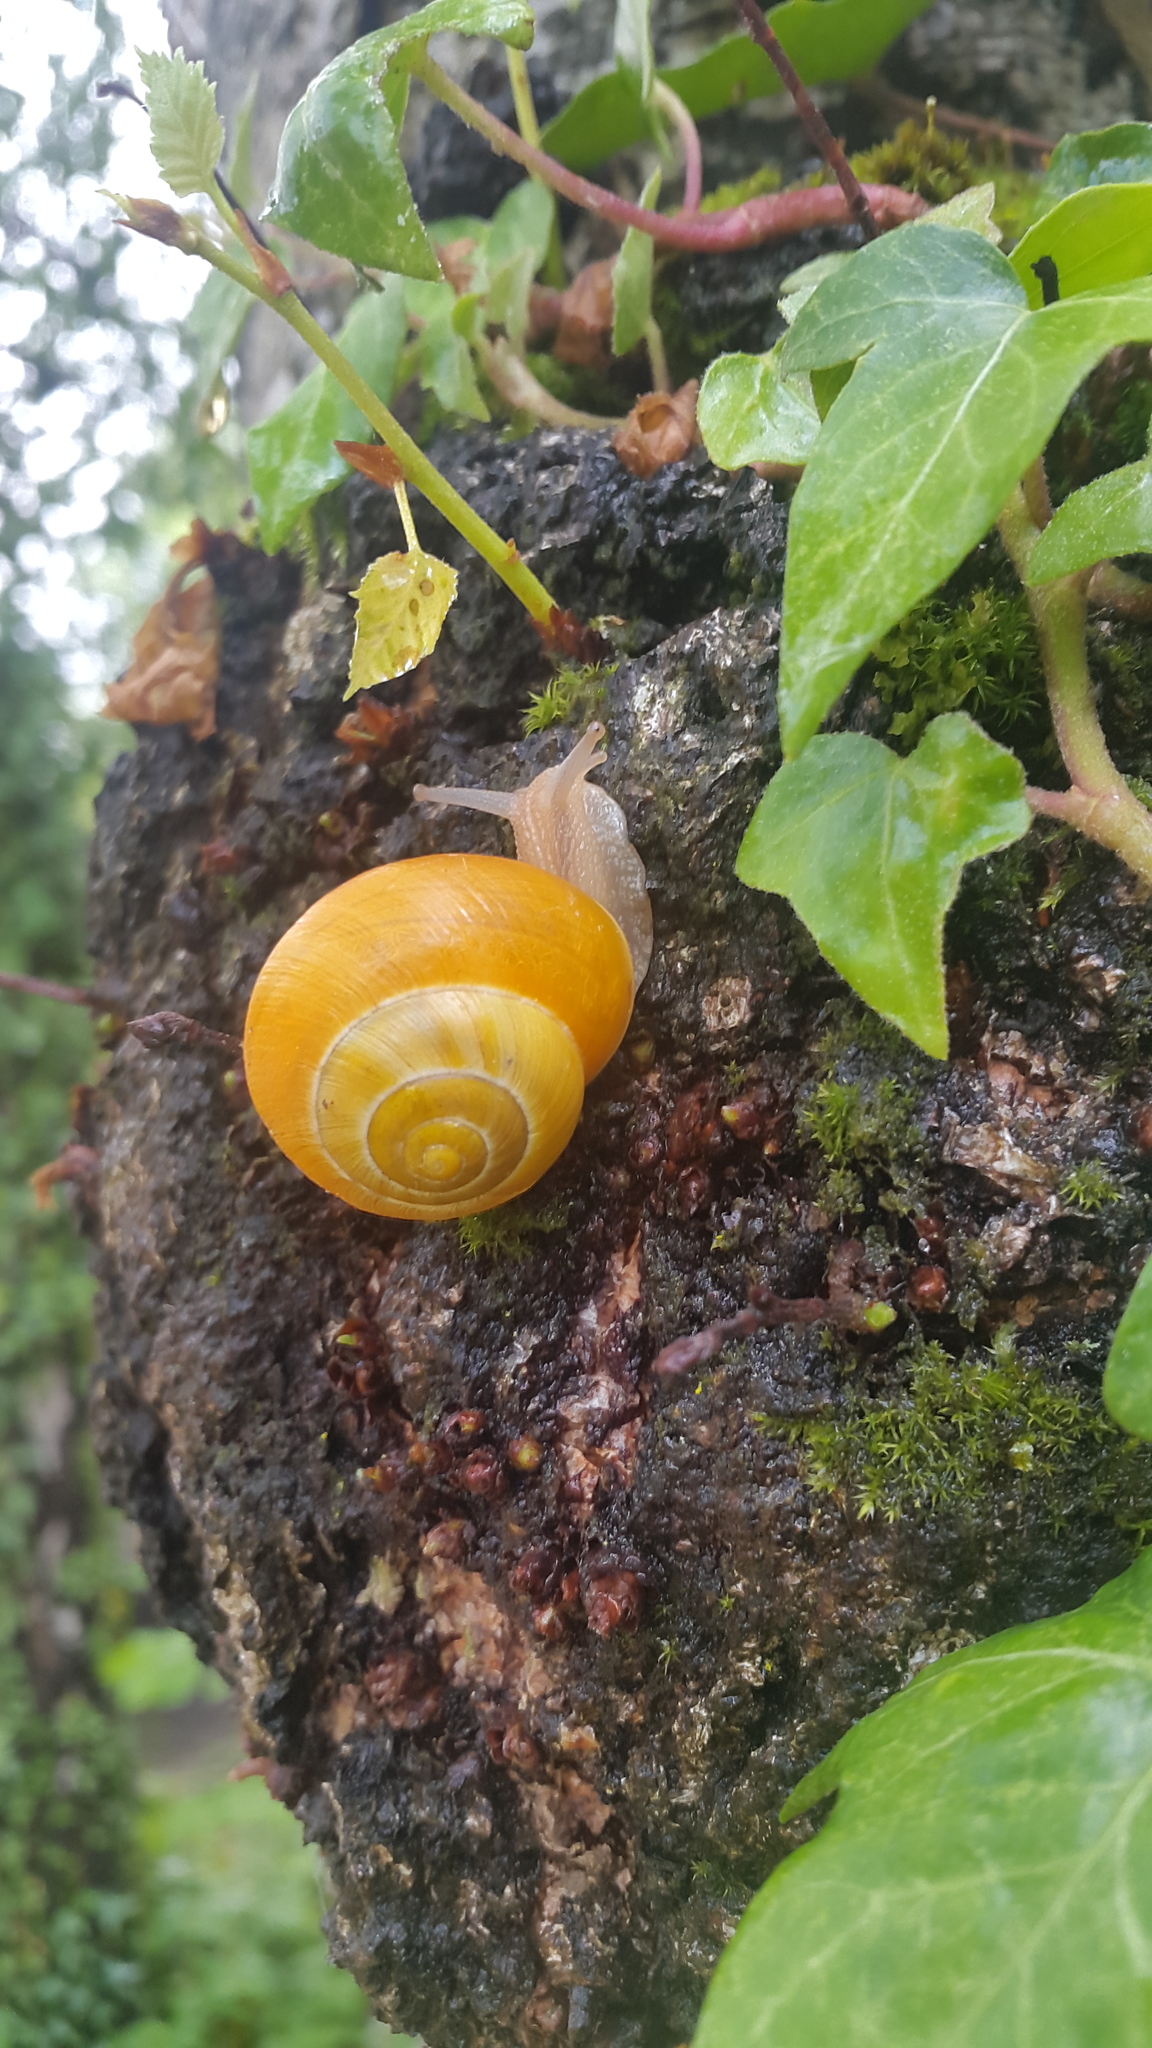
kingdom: Animalia
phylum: Mollusca
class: Gastropoda
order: Stylommatophora
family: Helicidae
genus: Cepaea
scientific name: Cepaea hortensis
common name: White-lip gardensnail
